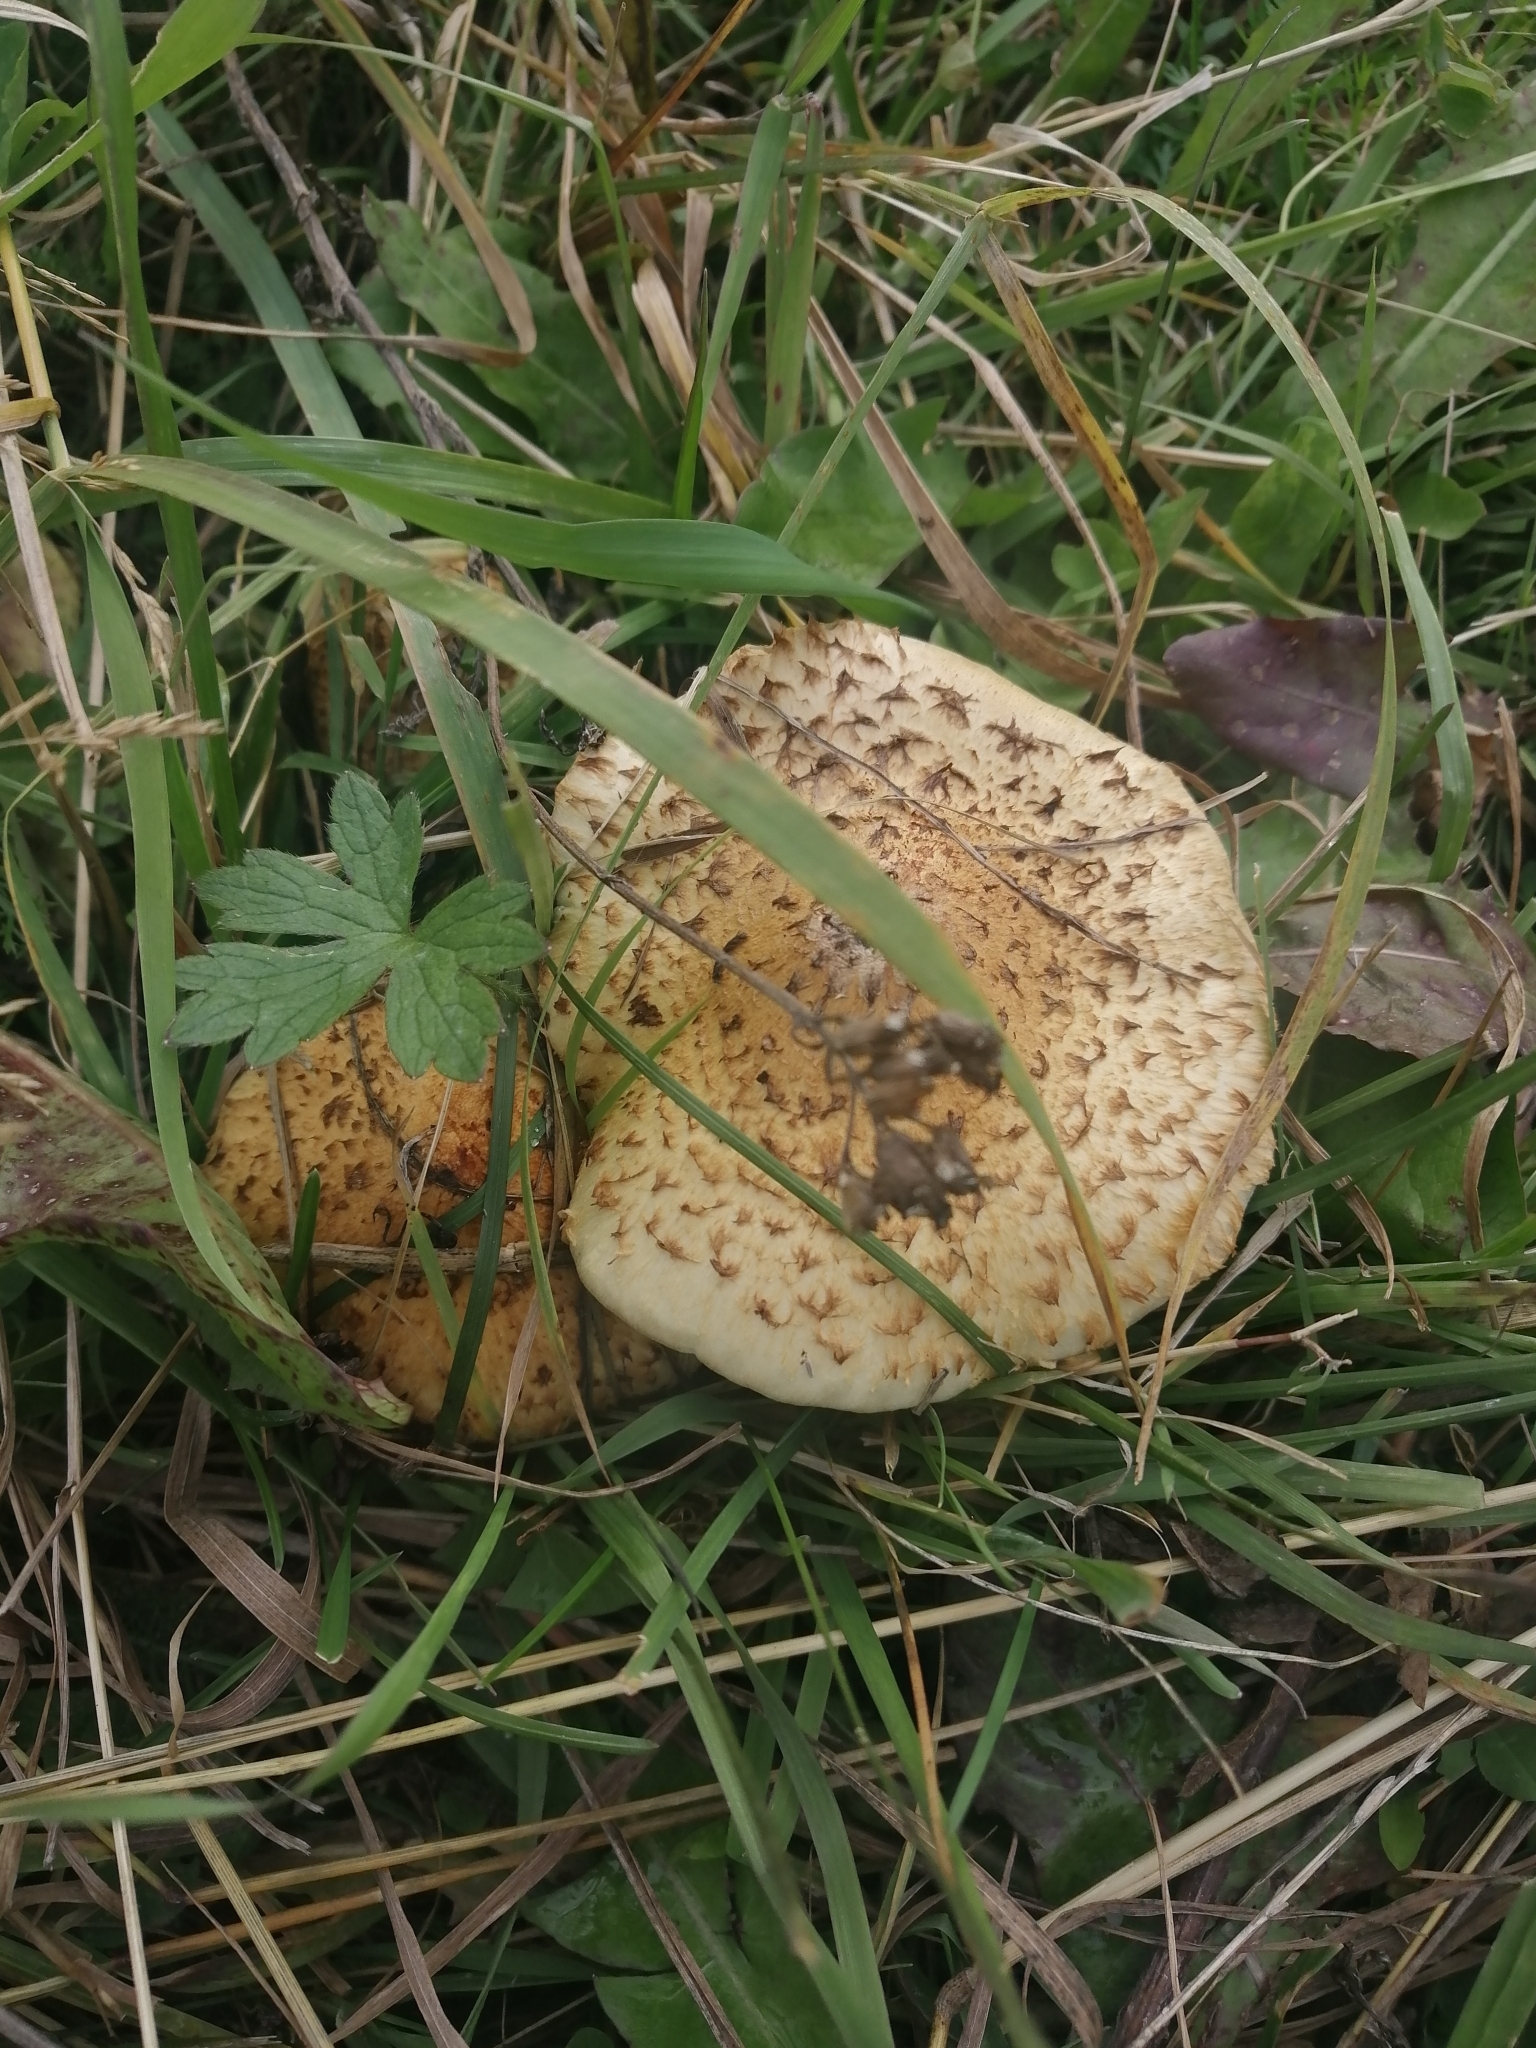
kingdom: Fungi
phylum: Basidiomycota
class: Agaricomycetes
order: Agaricales
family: Strophariaceae
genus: Pholiota
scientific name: Pholiota squarrosa
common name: Shaggy pholiota
